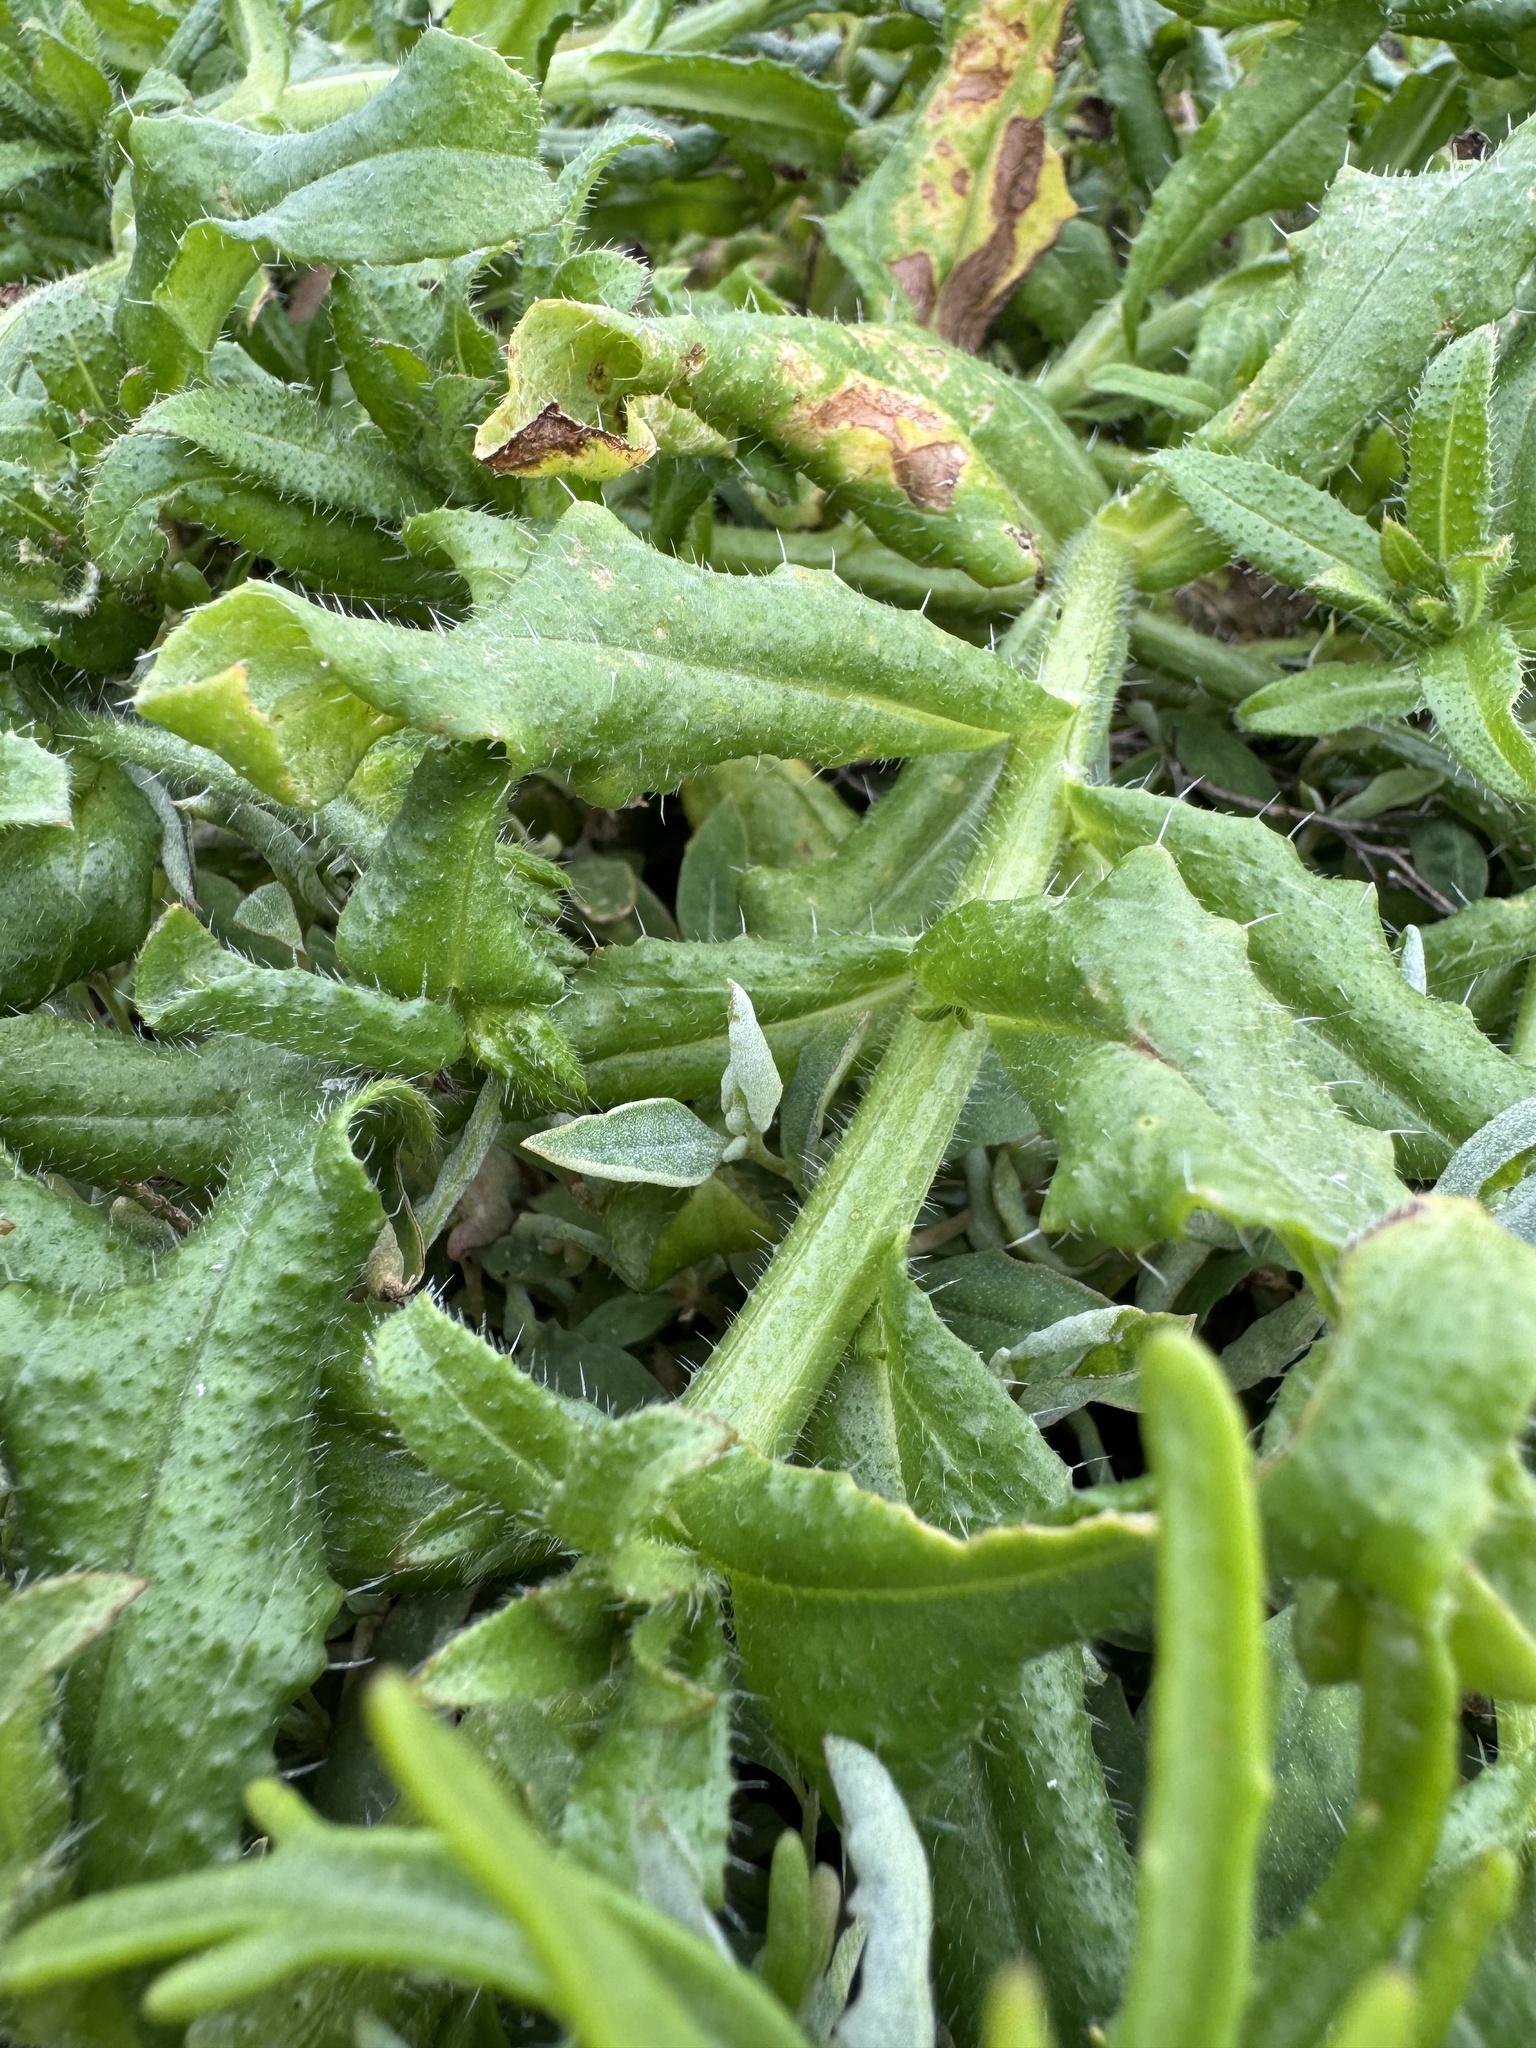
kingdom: Plantae
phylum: Tracheophyta
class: Magnoliopsida
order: Boraginales
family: Boraginaceae
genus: Amsinckia
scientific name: Amsinckia spectabilis
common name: Seaside fiddleneck
